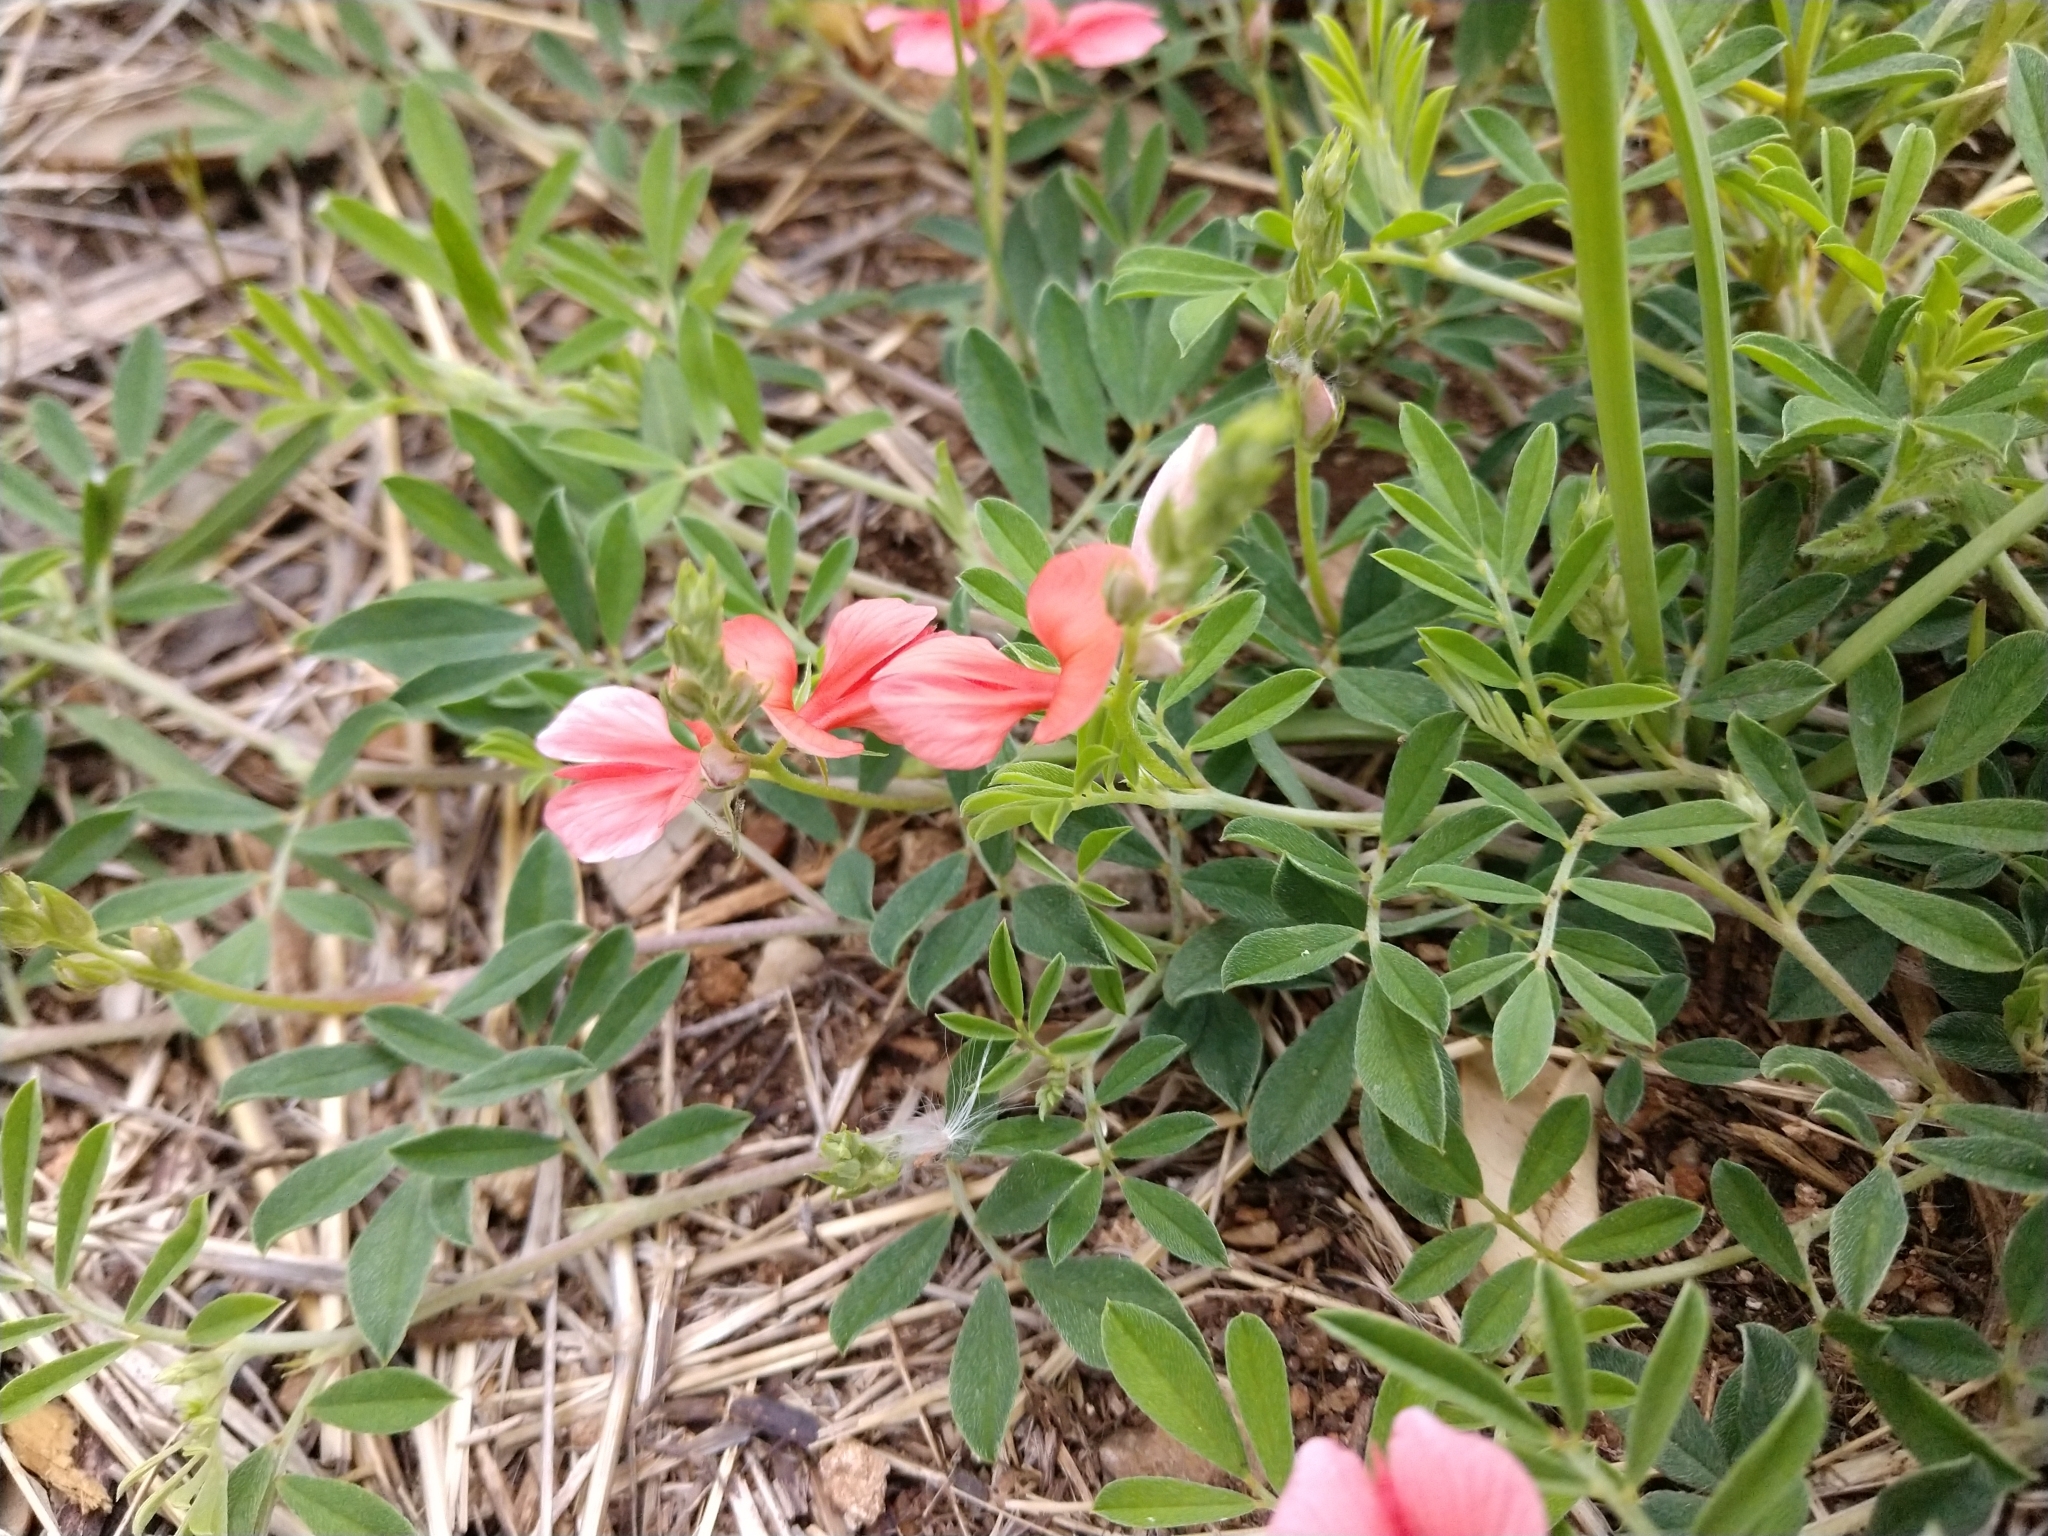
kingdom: Plantae
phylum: Tracheophyta
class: Magnoliopsida
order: Fabales
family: Fabaceae
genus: Indigofera
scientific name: Indigofera miniata
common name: Coast indigo
